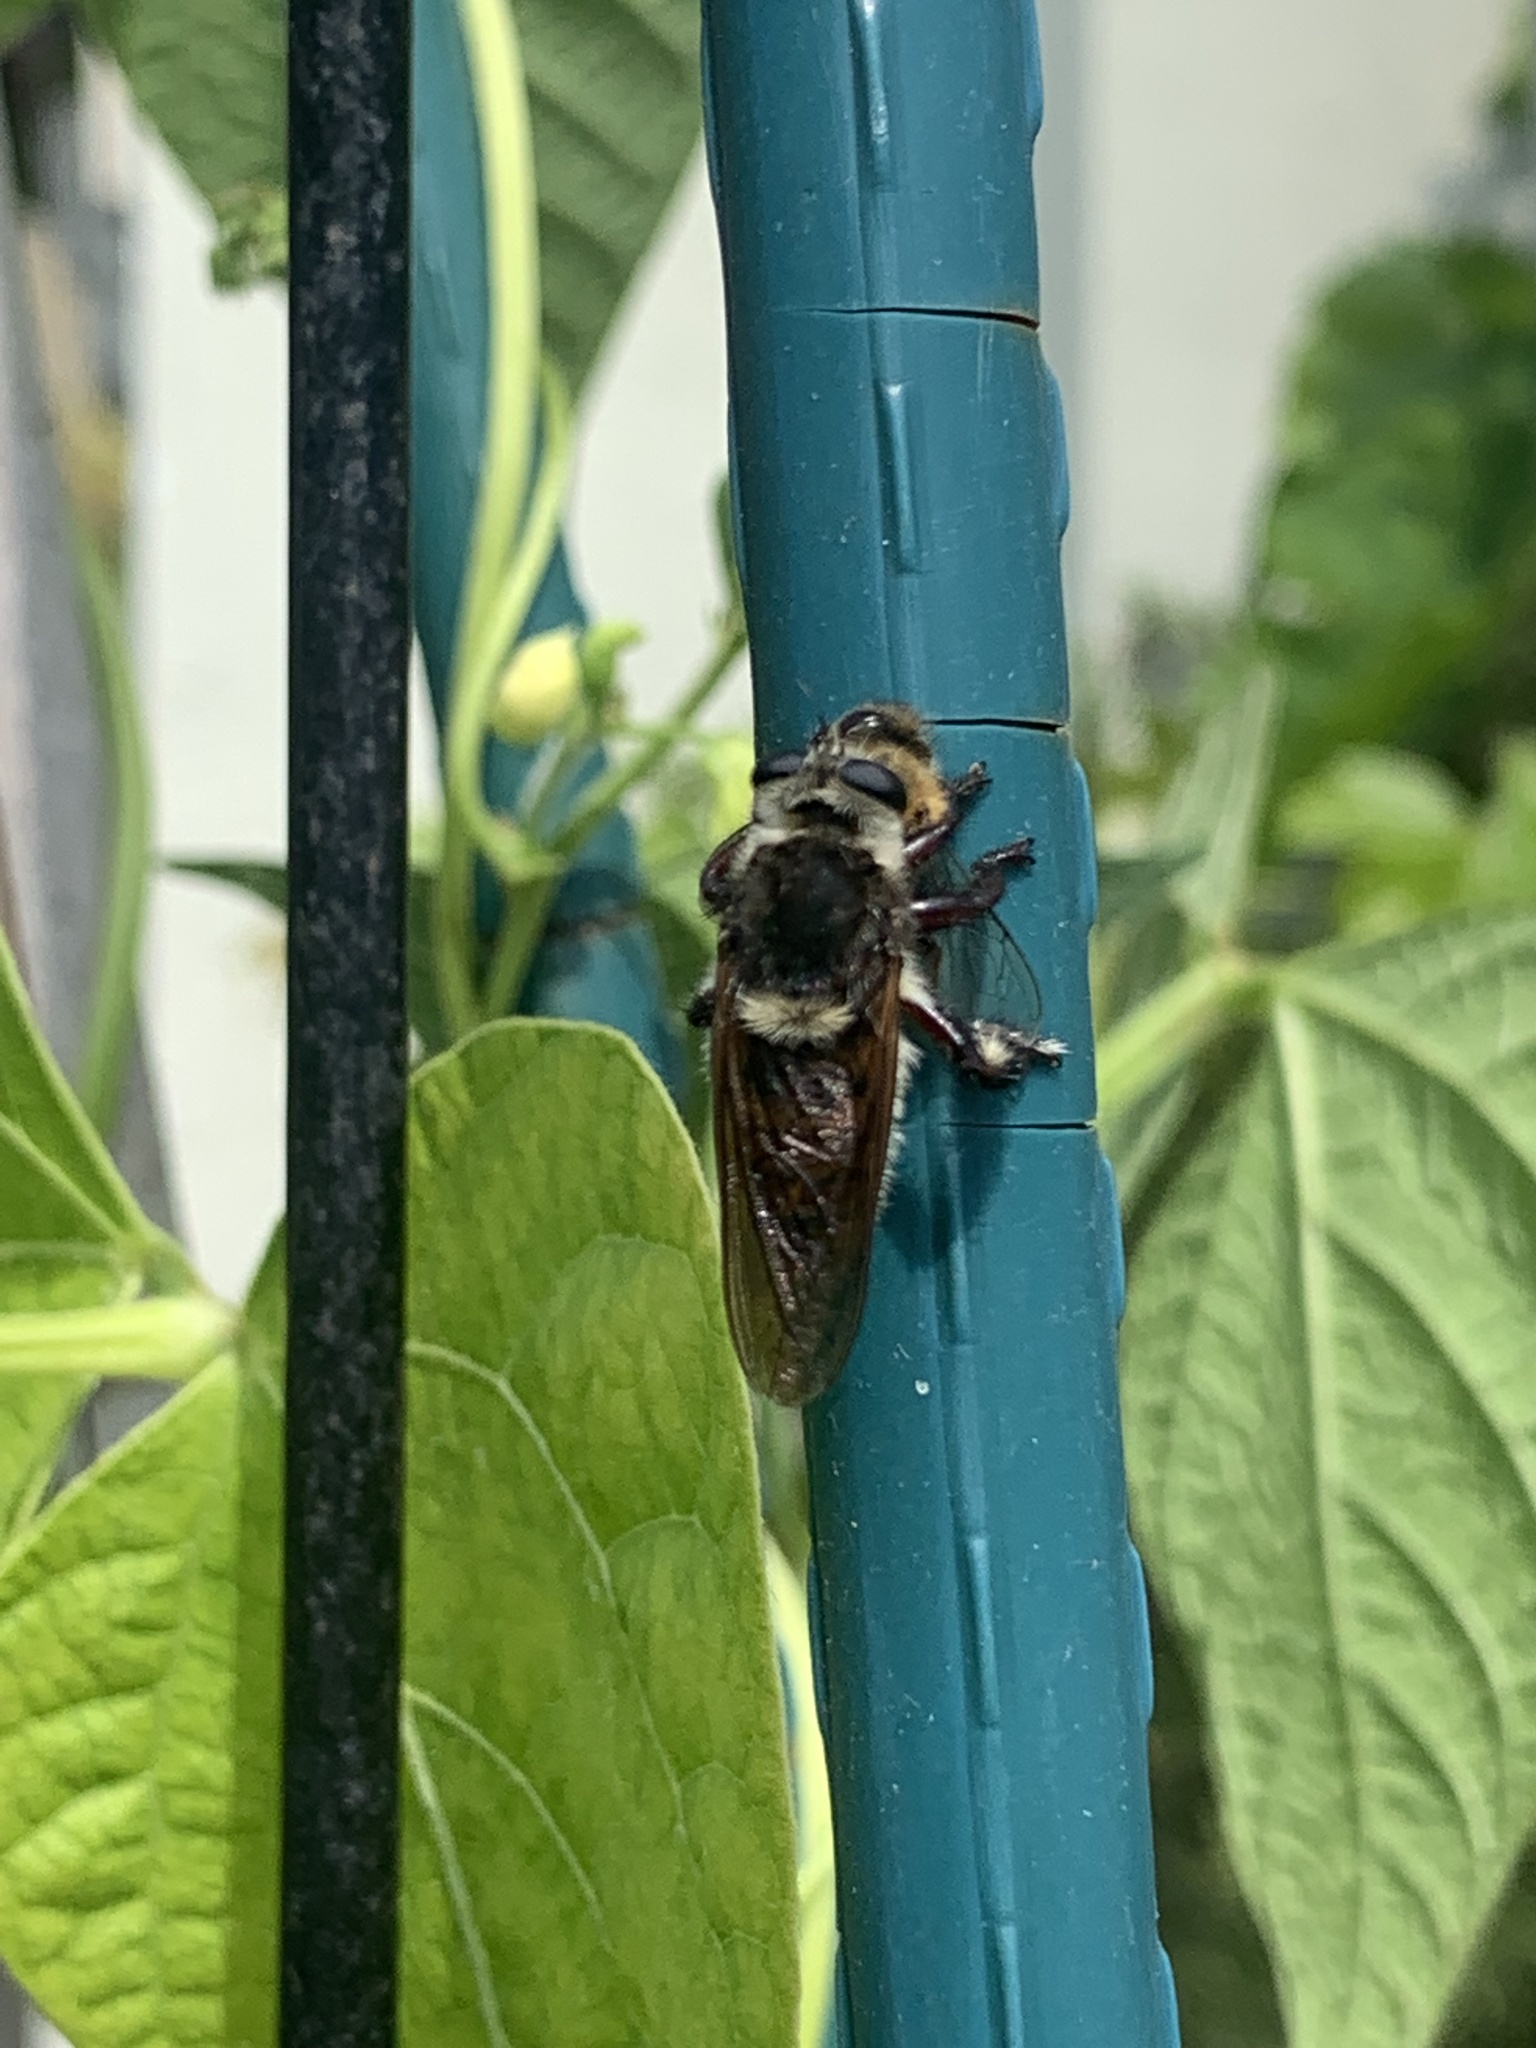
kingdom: Animalia
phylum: Arthropoda
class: Insecta
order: Diptera
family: Asilidae
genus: Mallophora
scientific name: Mallophora fautrix
